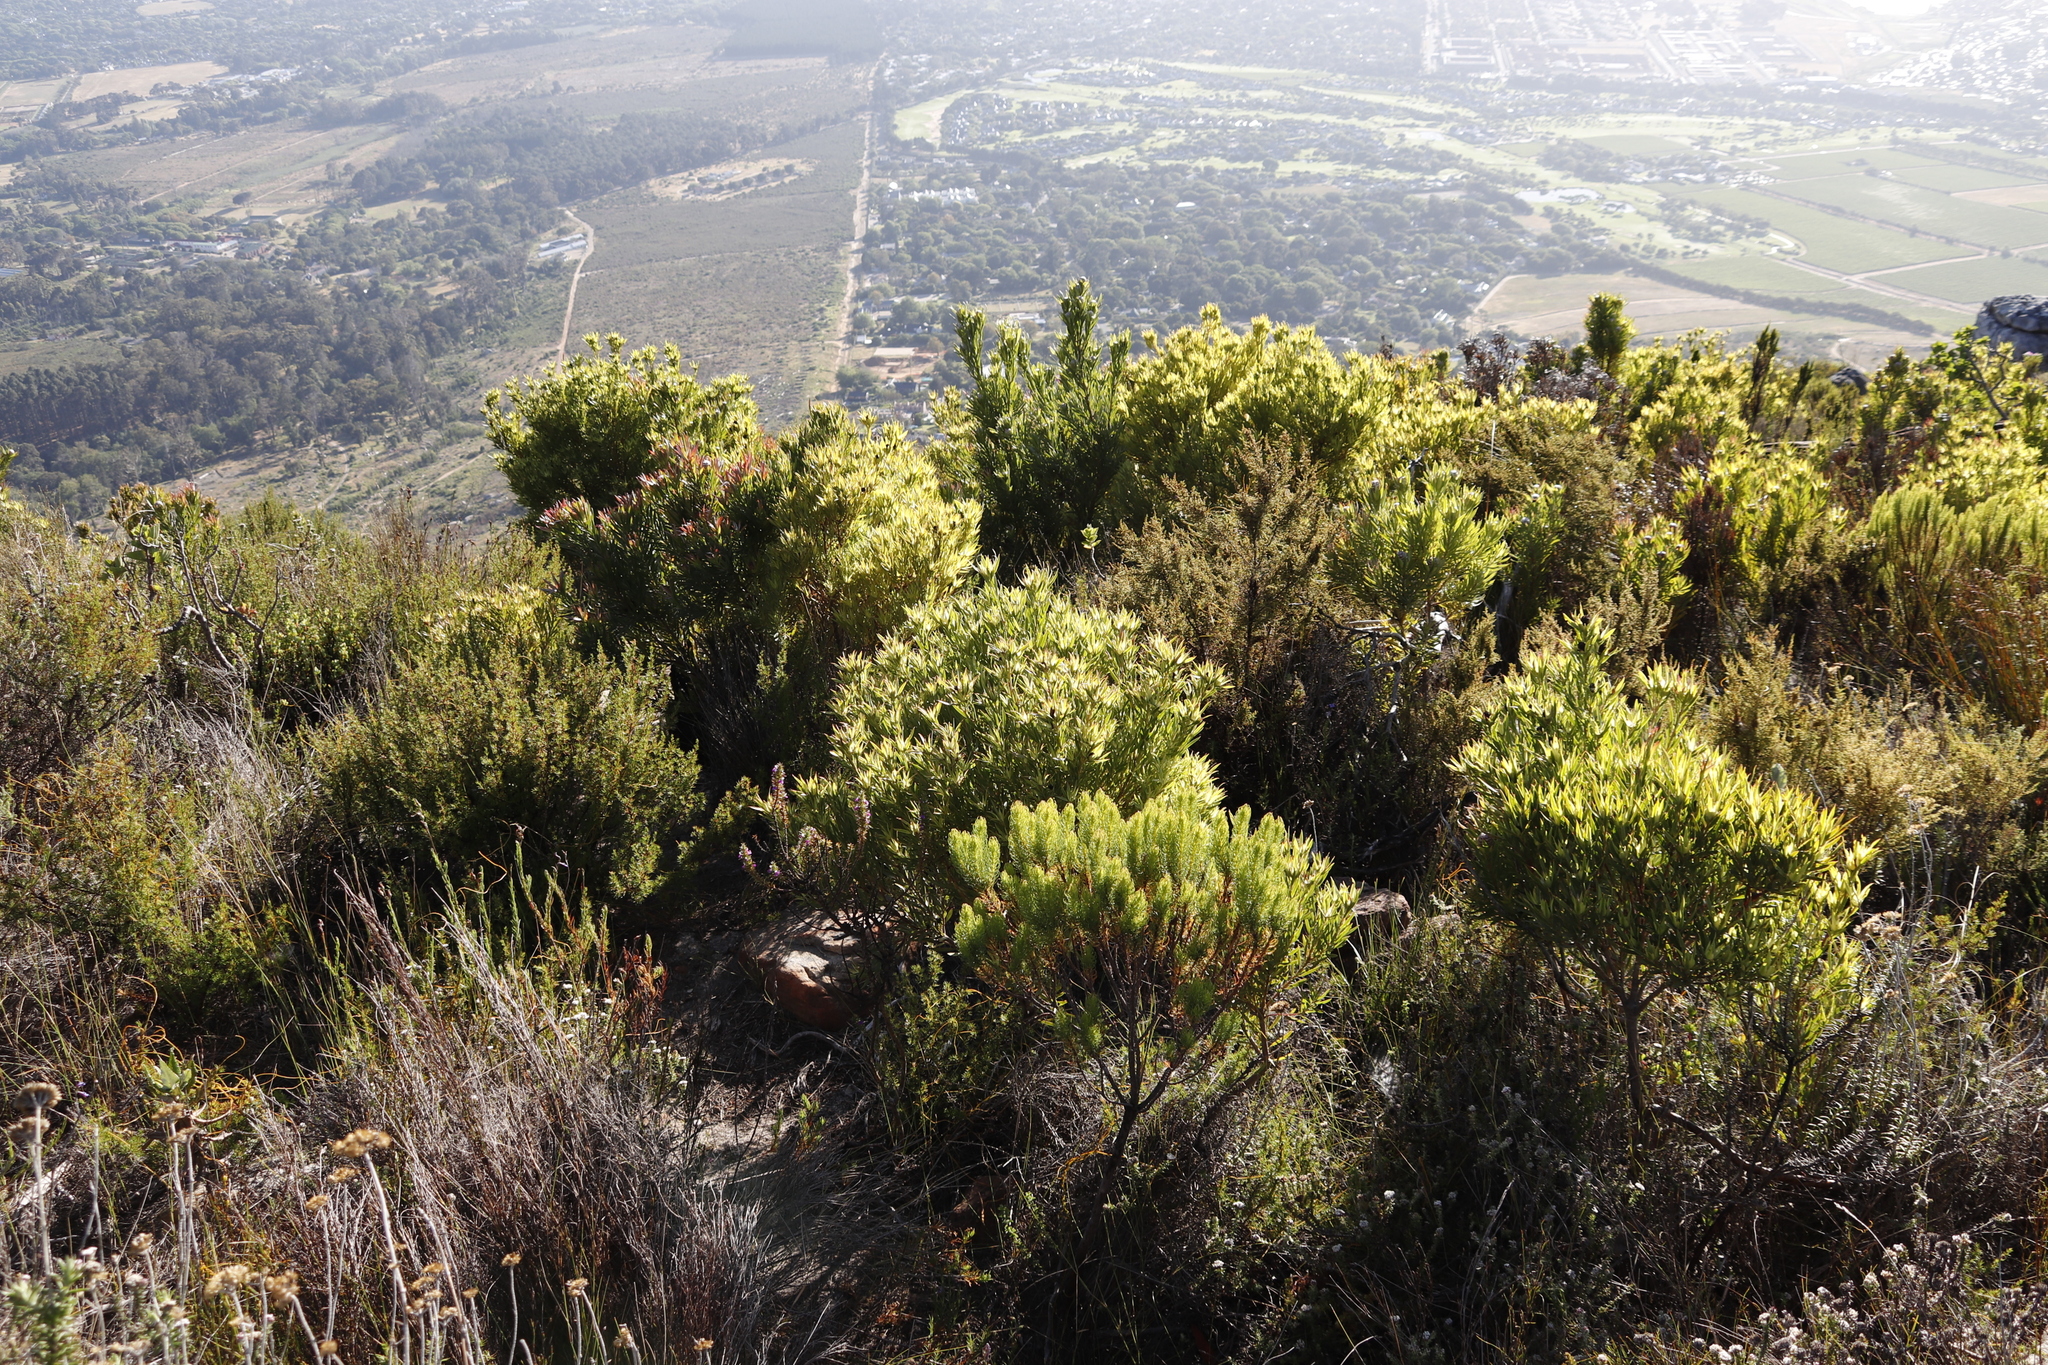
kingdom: Plantae
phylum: Tracheophyta
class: Magnoliopsida
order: Ericales
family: Ericaceae
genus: Erica
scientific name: Erica plukenetii
